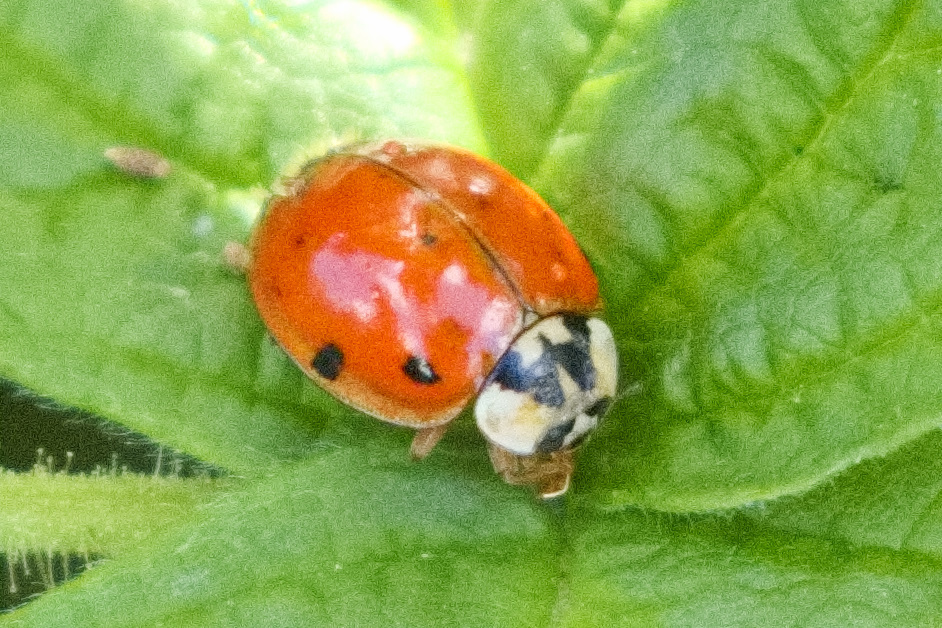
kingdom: Animalia
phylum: Arthropoda
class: Insecta
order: Coleoptera
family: Coccinellidae
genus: Harmonia
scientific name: Harmonia axyridis
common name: Harlequin ladybird
